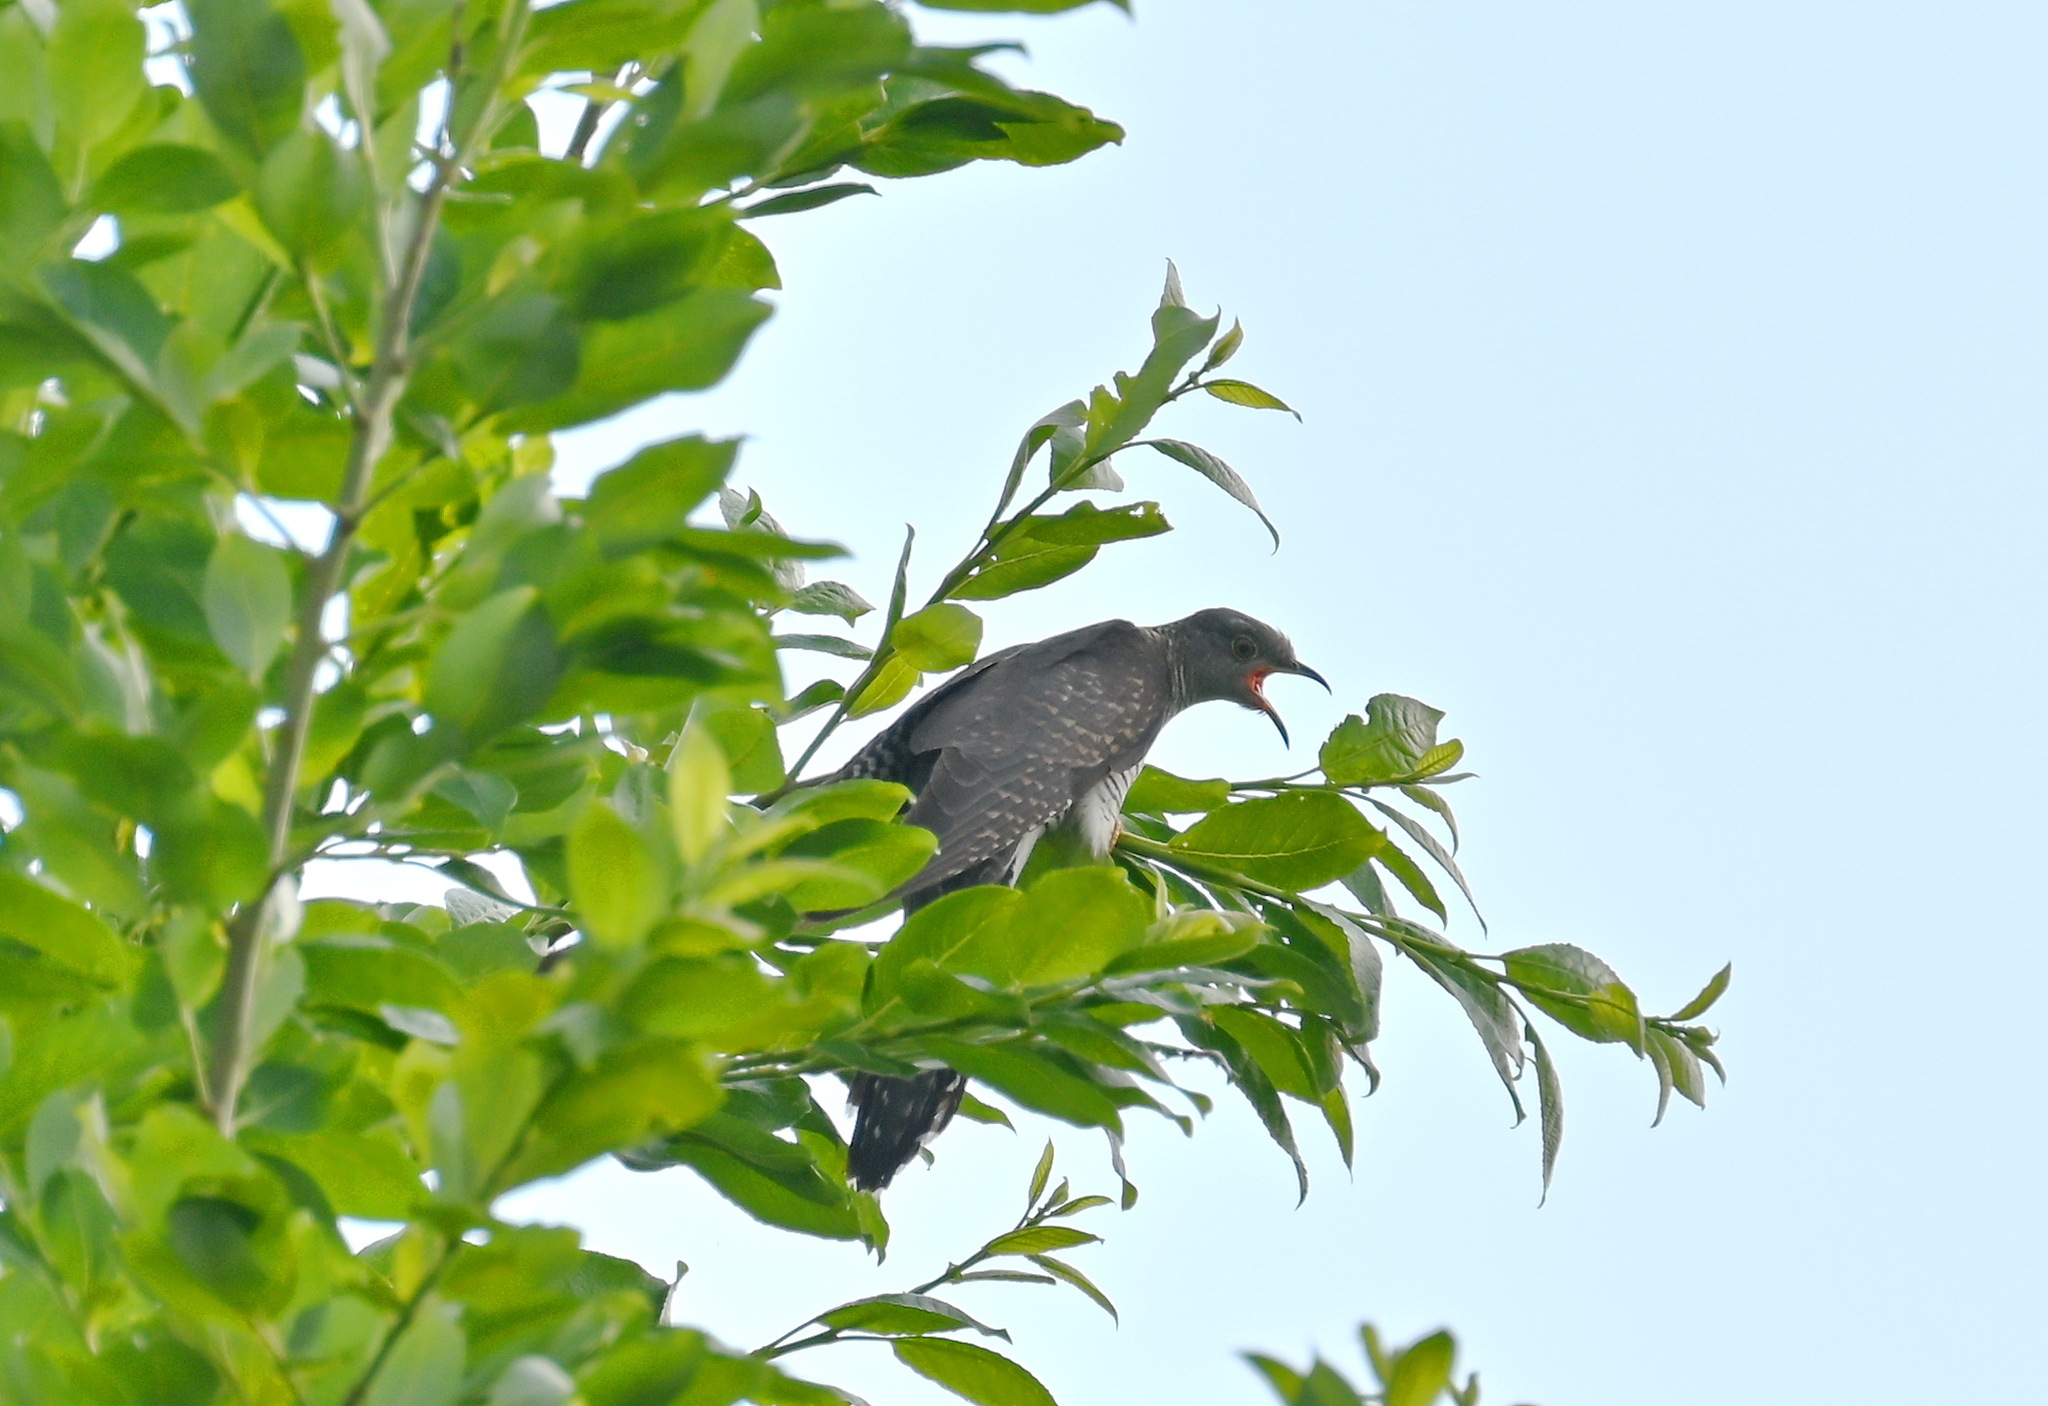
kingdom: Animalia
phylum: Chordata
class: Aves
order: Cuculiformes
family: Cuculidae
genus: Cuculus
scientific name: Cuculus canorus
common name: Common cuckoo
